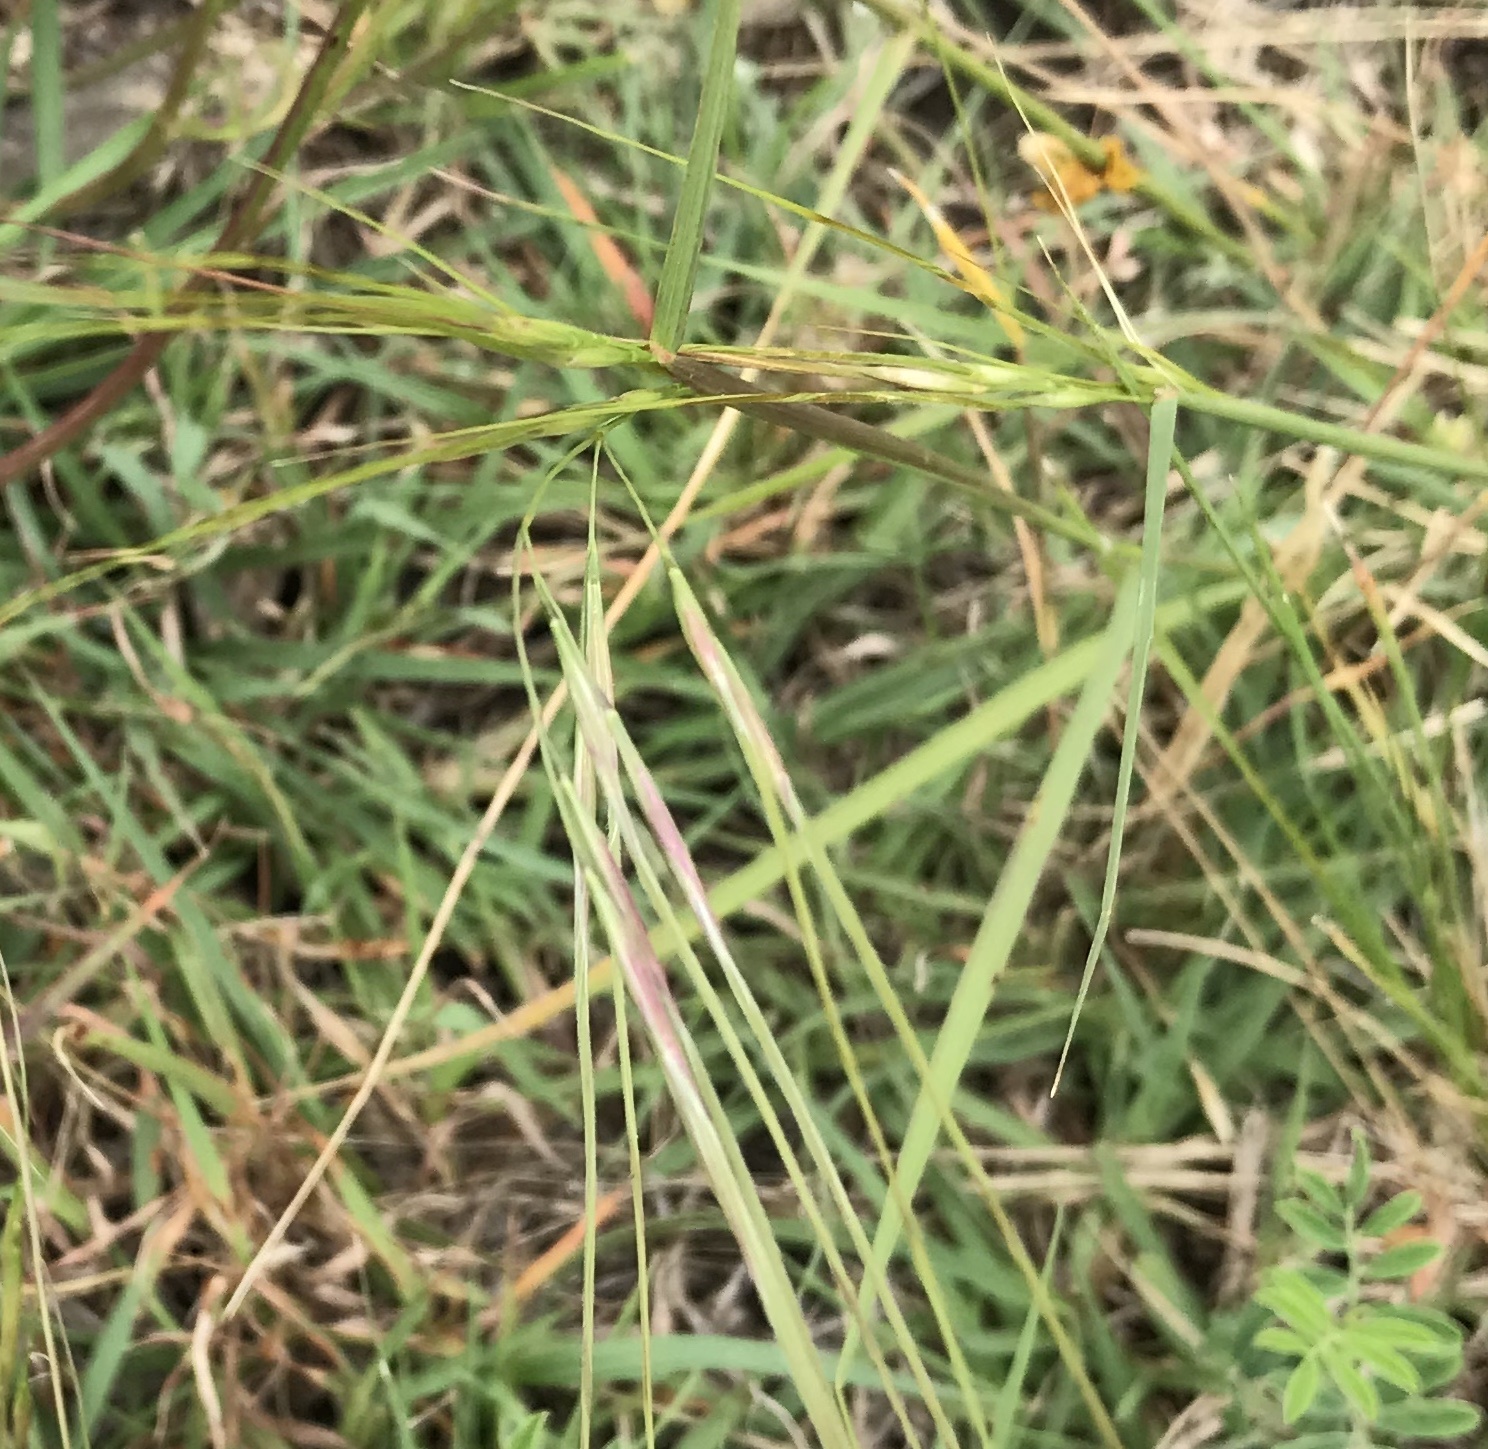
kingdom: Plantae
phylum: Tracheophyta
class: Liliopsida
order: Poales
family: Poaceae
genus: Nassella
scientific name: Nassella leucotricha
